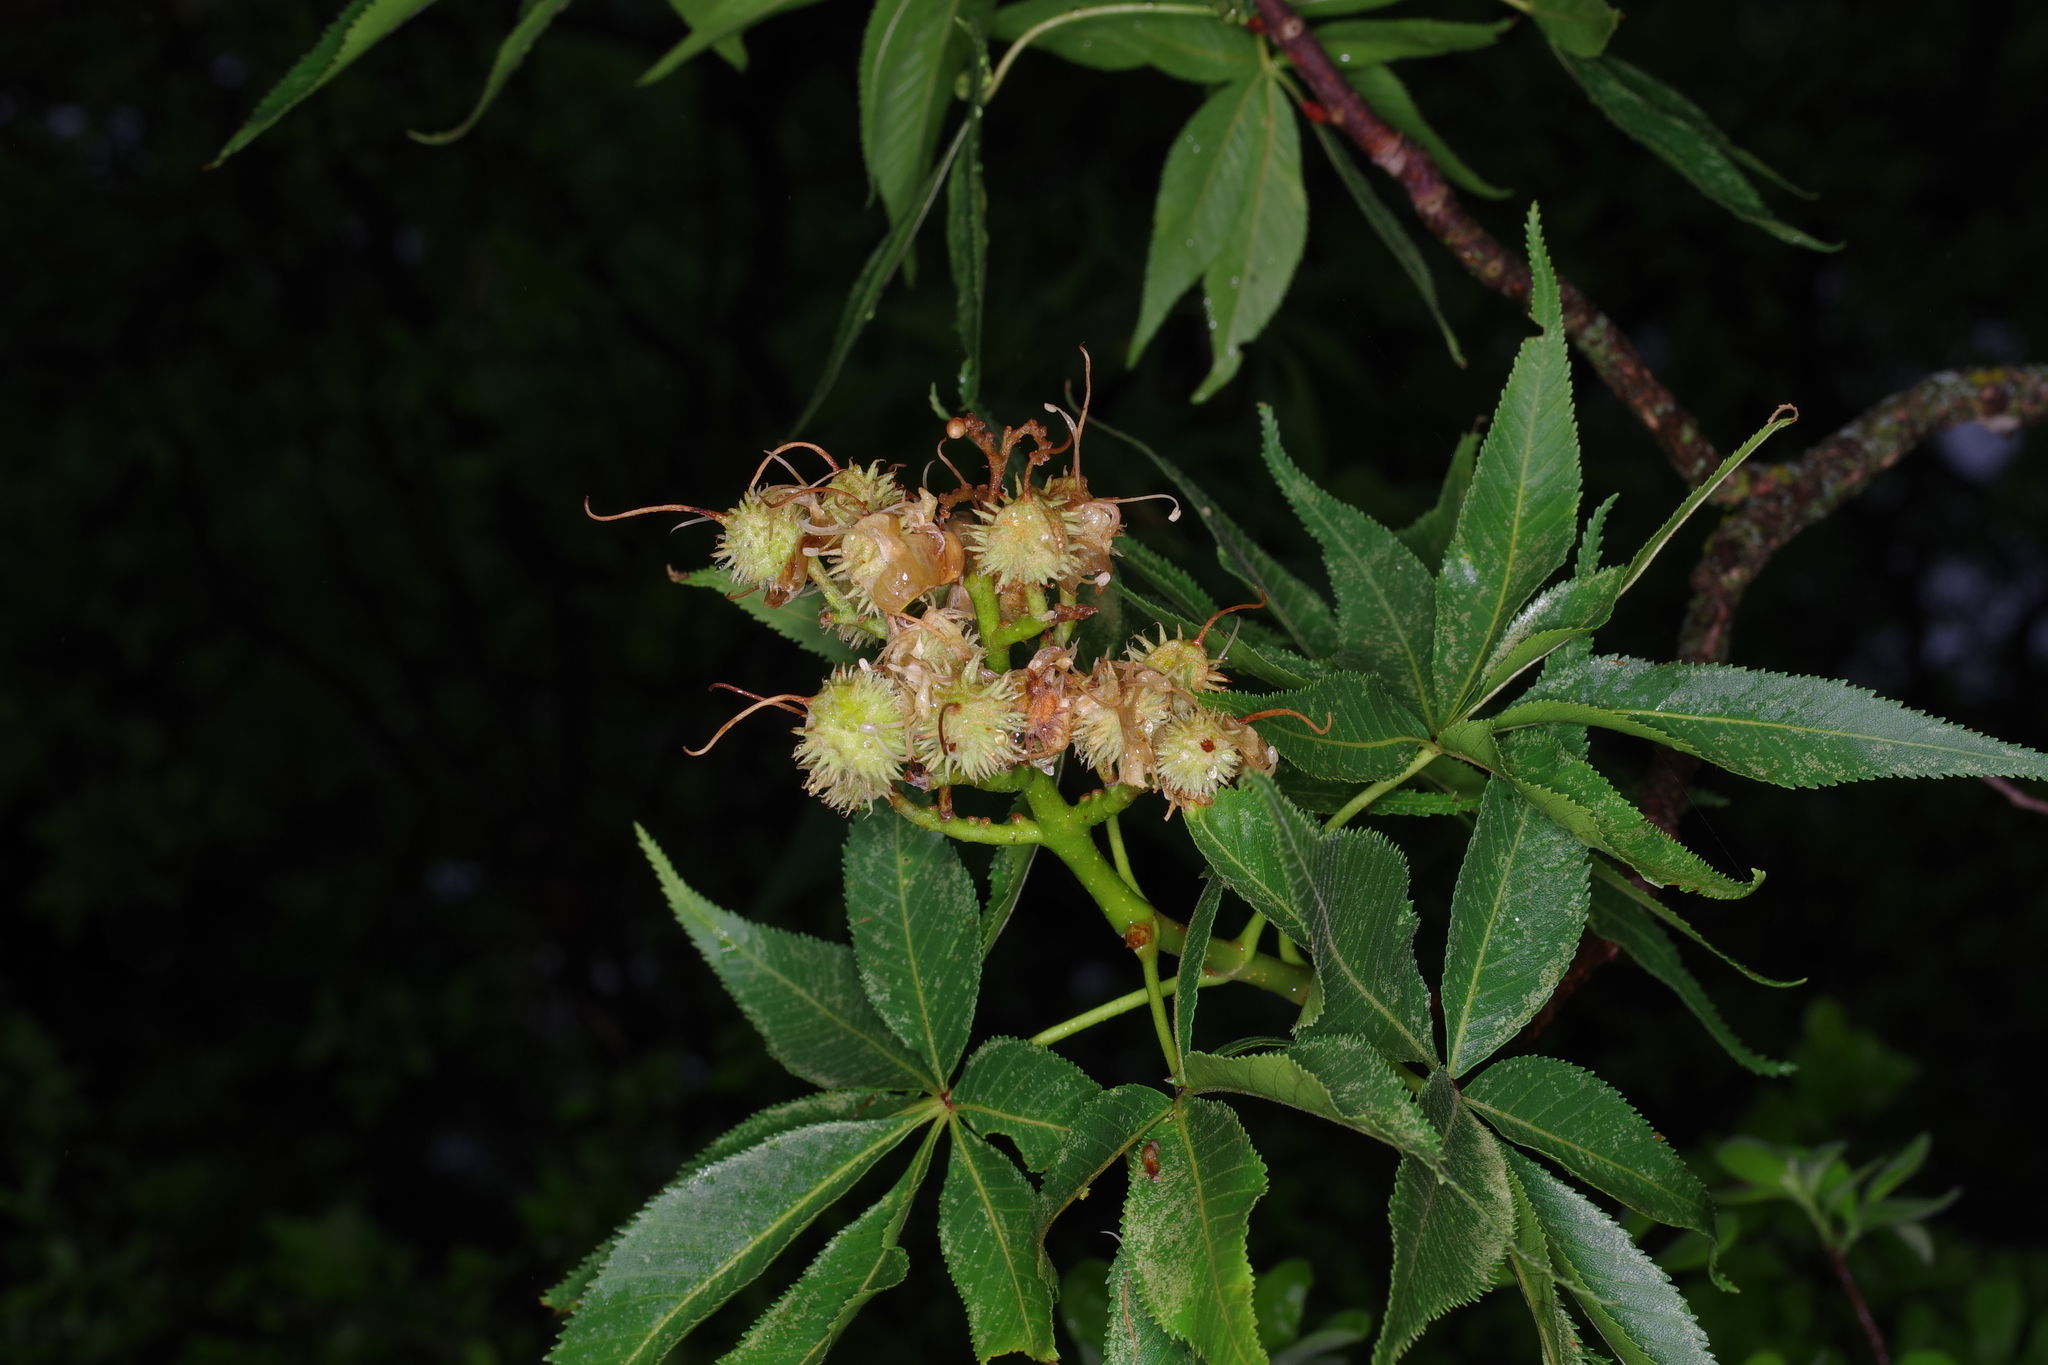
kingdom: Plantae
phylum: Tracheophyta
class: Magnoliopsida
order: Sapindales
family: Sapindaceae
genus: Aesculus
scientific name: Aesculus glabra
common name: Ohio buckeye
